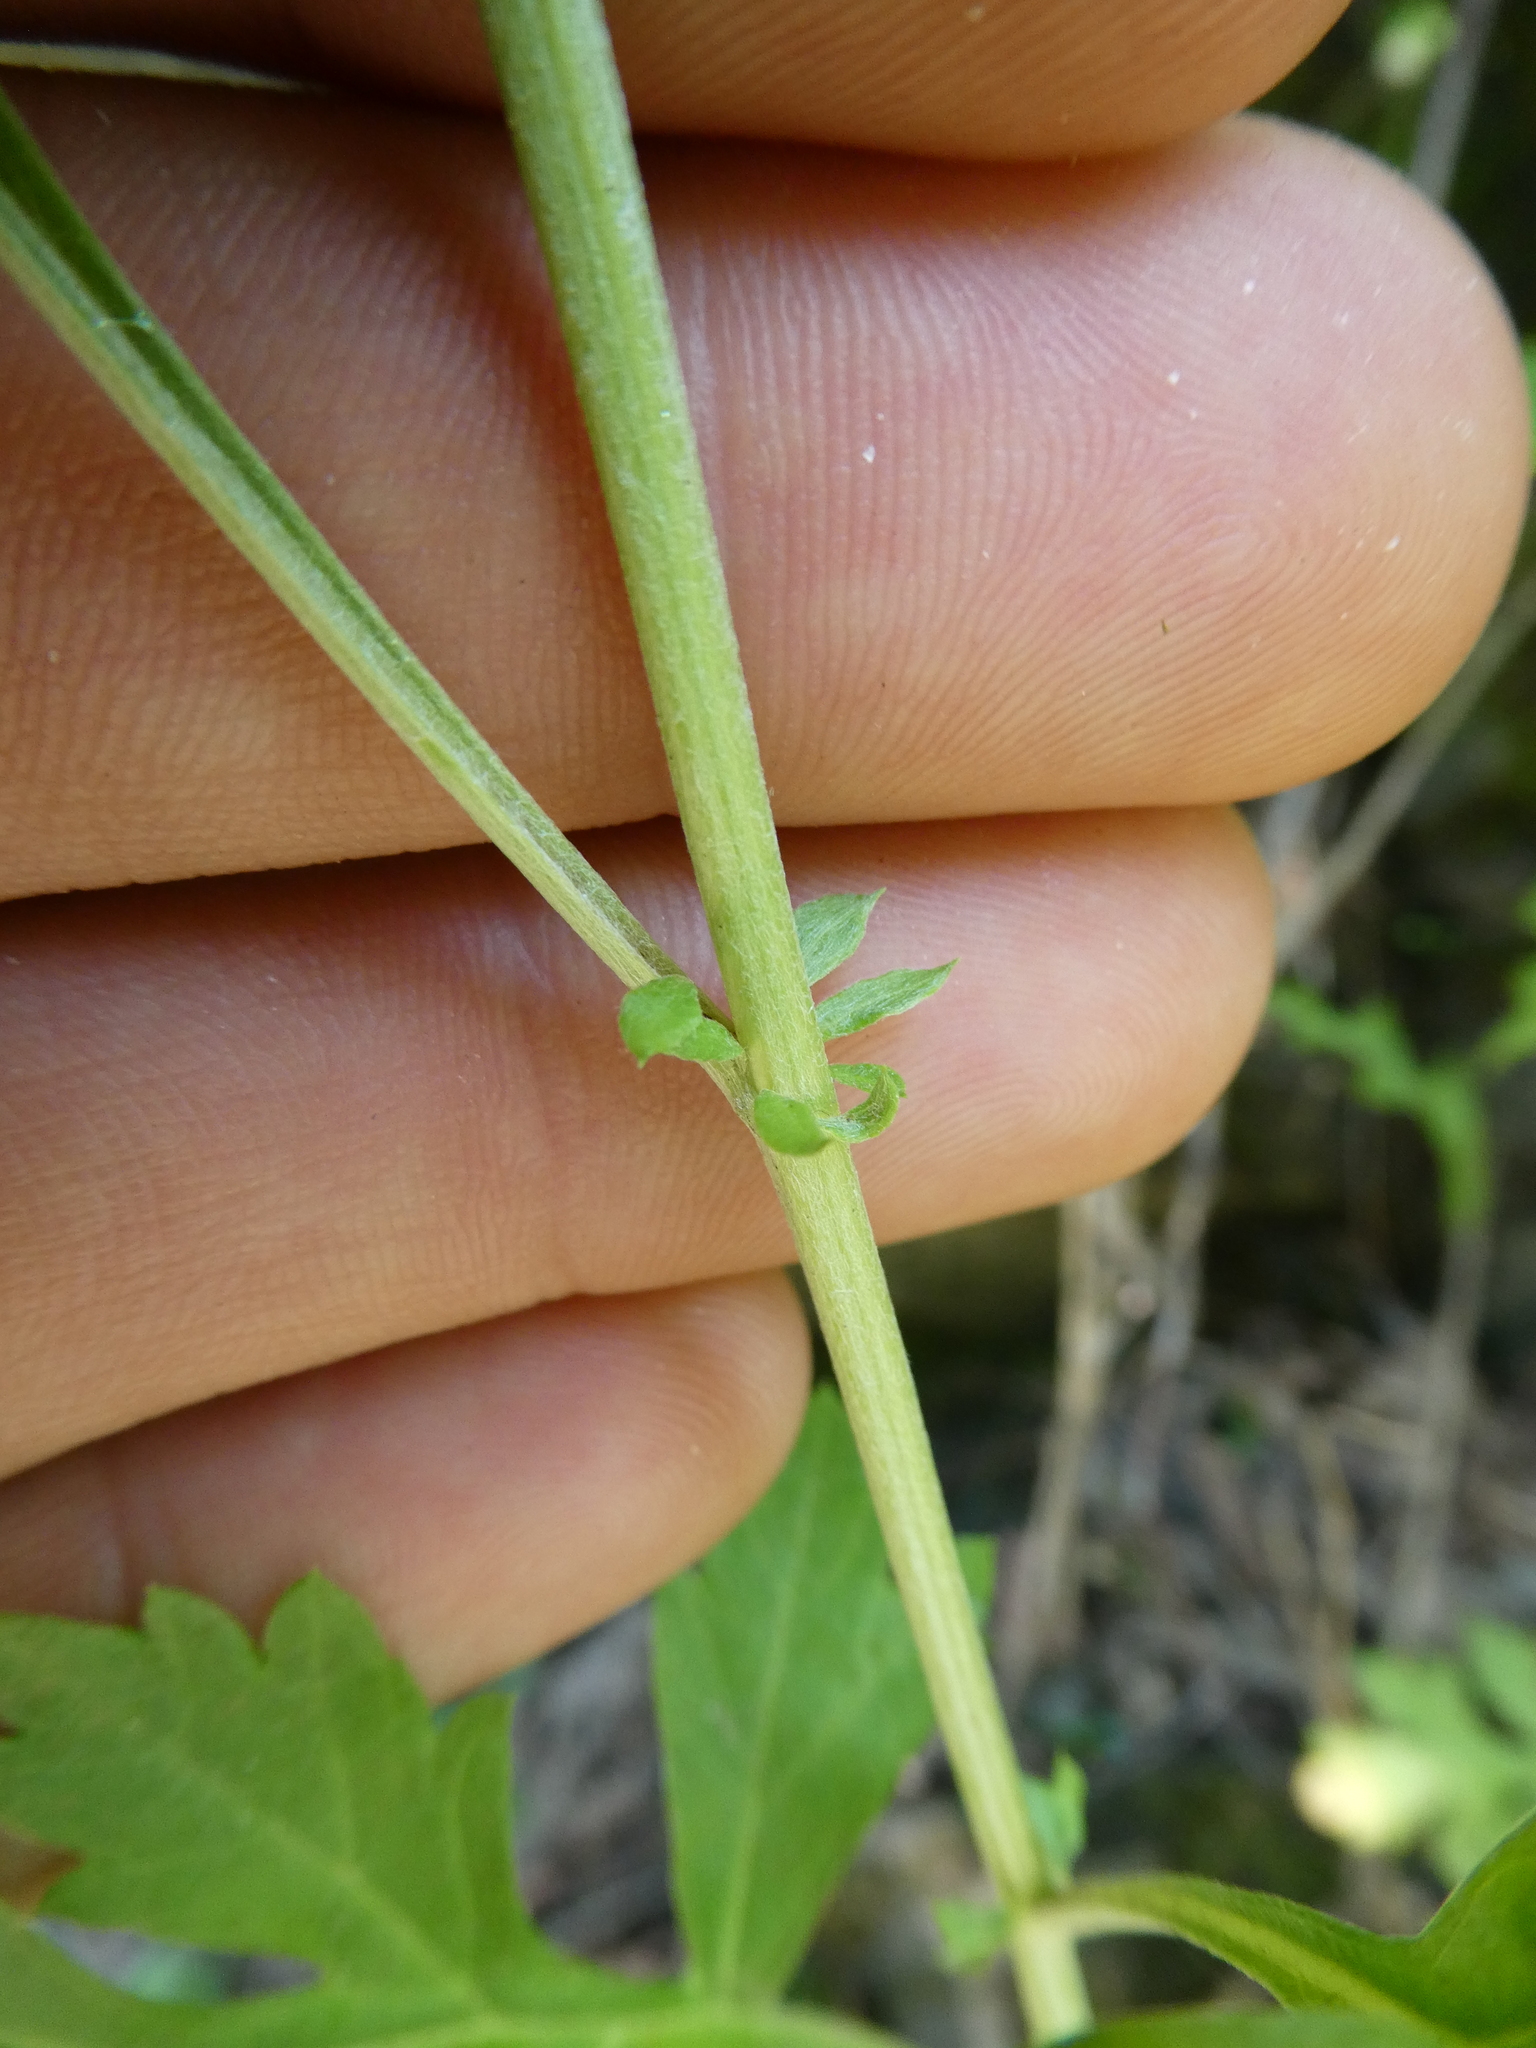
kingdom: Plantae
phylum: Tracheophyta
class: Magnoliopsida
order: Asterales
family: Asteraceae
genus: Artemisia
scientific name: Artemisia vulgaris
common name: Mugwort
